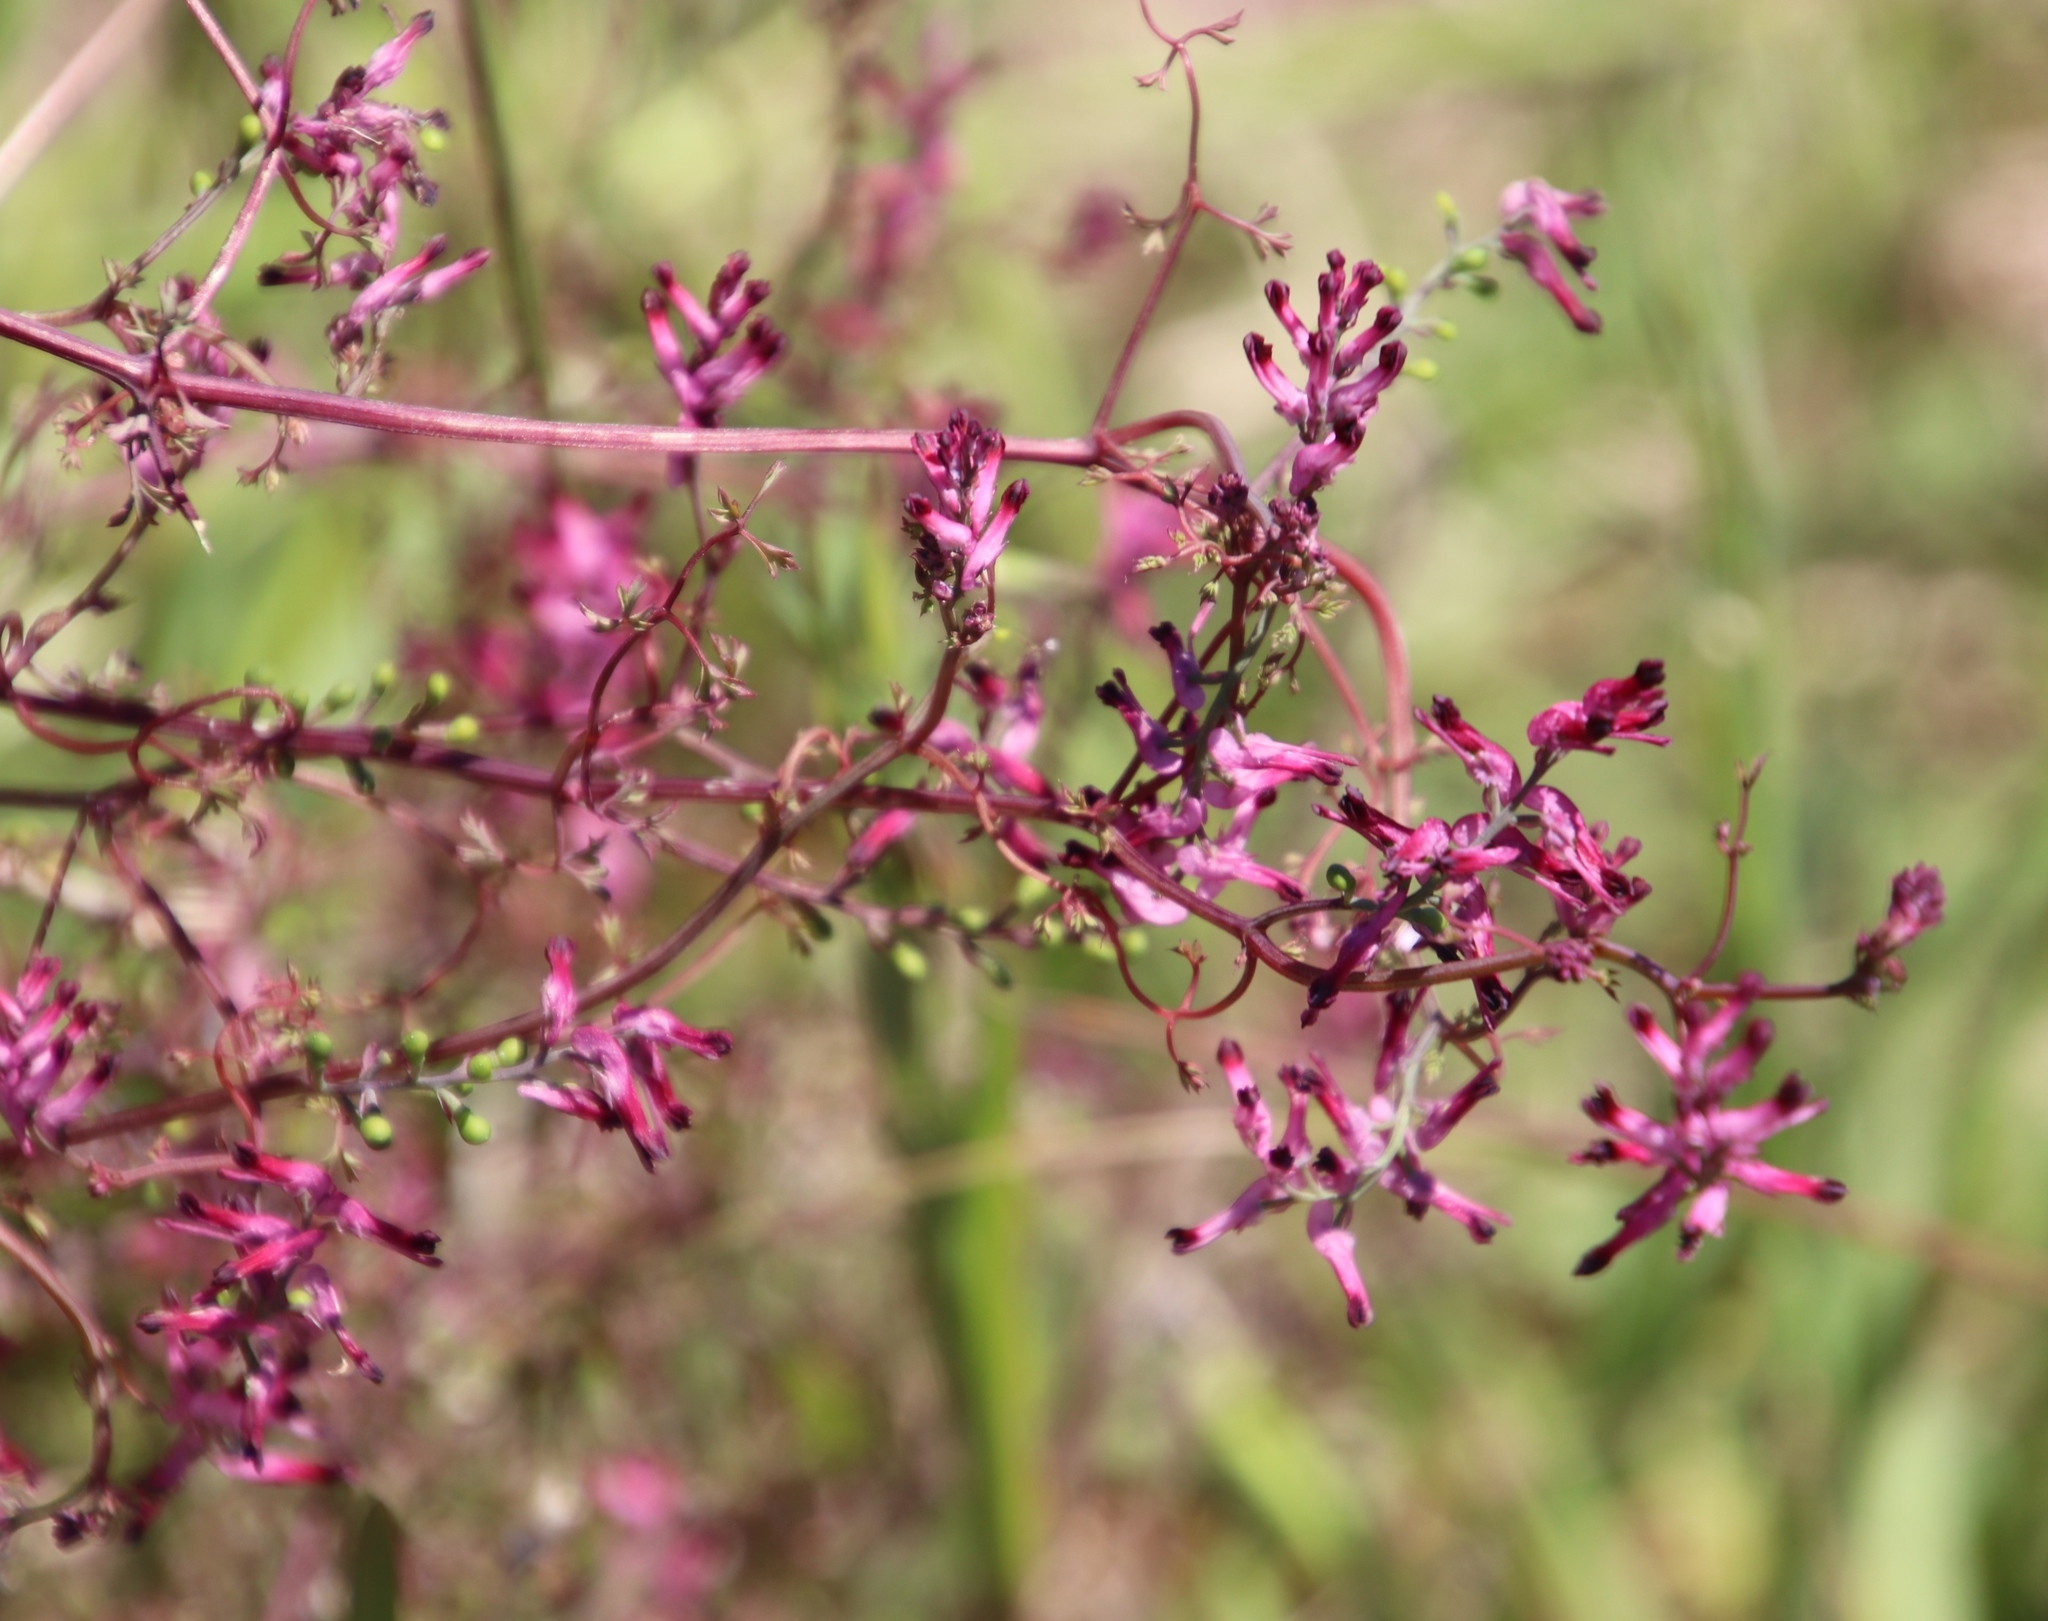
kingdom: Plantae
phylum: Tracheophyta
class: Magnoliopsida
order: Ranunculales
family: Papaveraceae
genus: Fumaria
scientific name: Fumaria muralis
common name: Common ramping-fumitory
